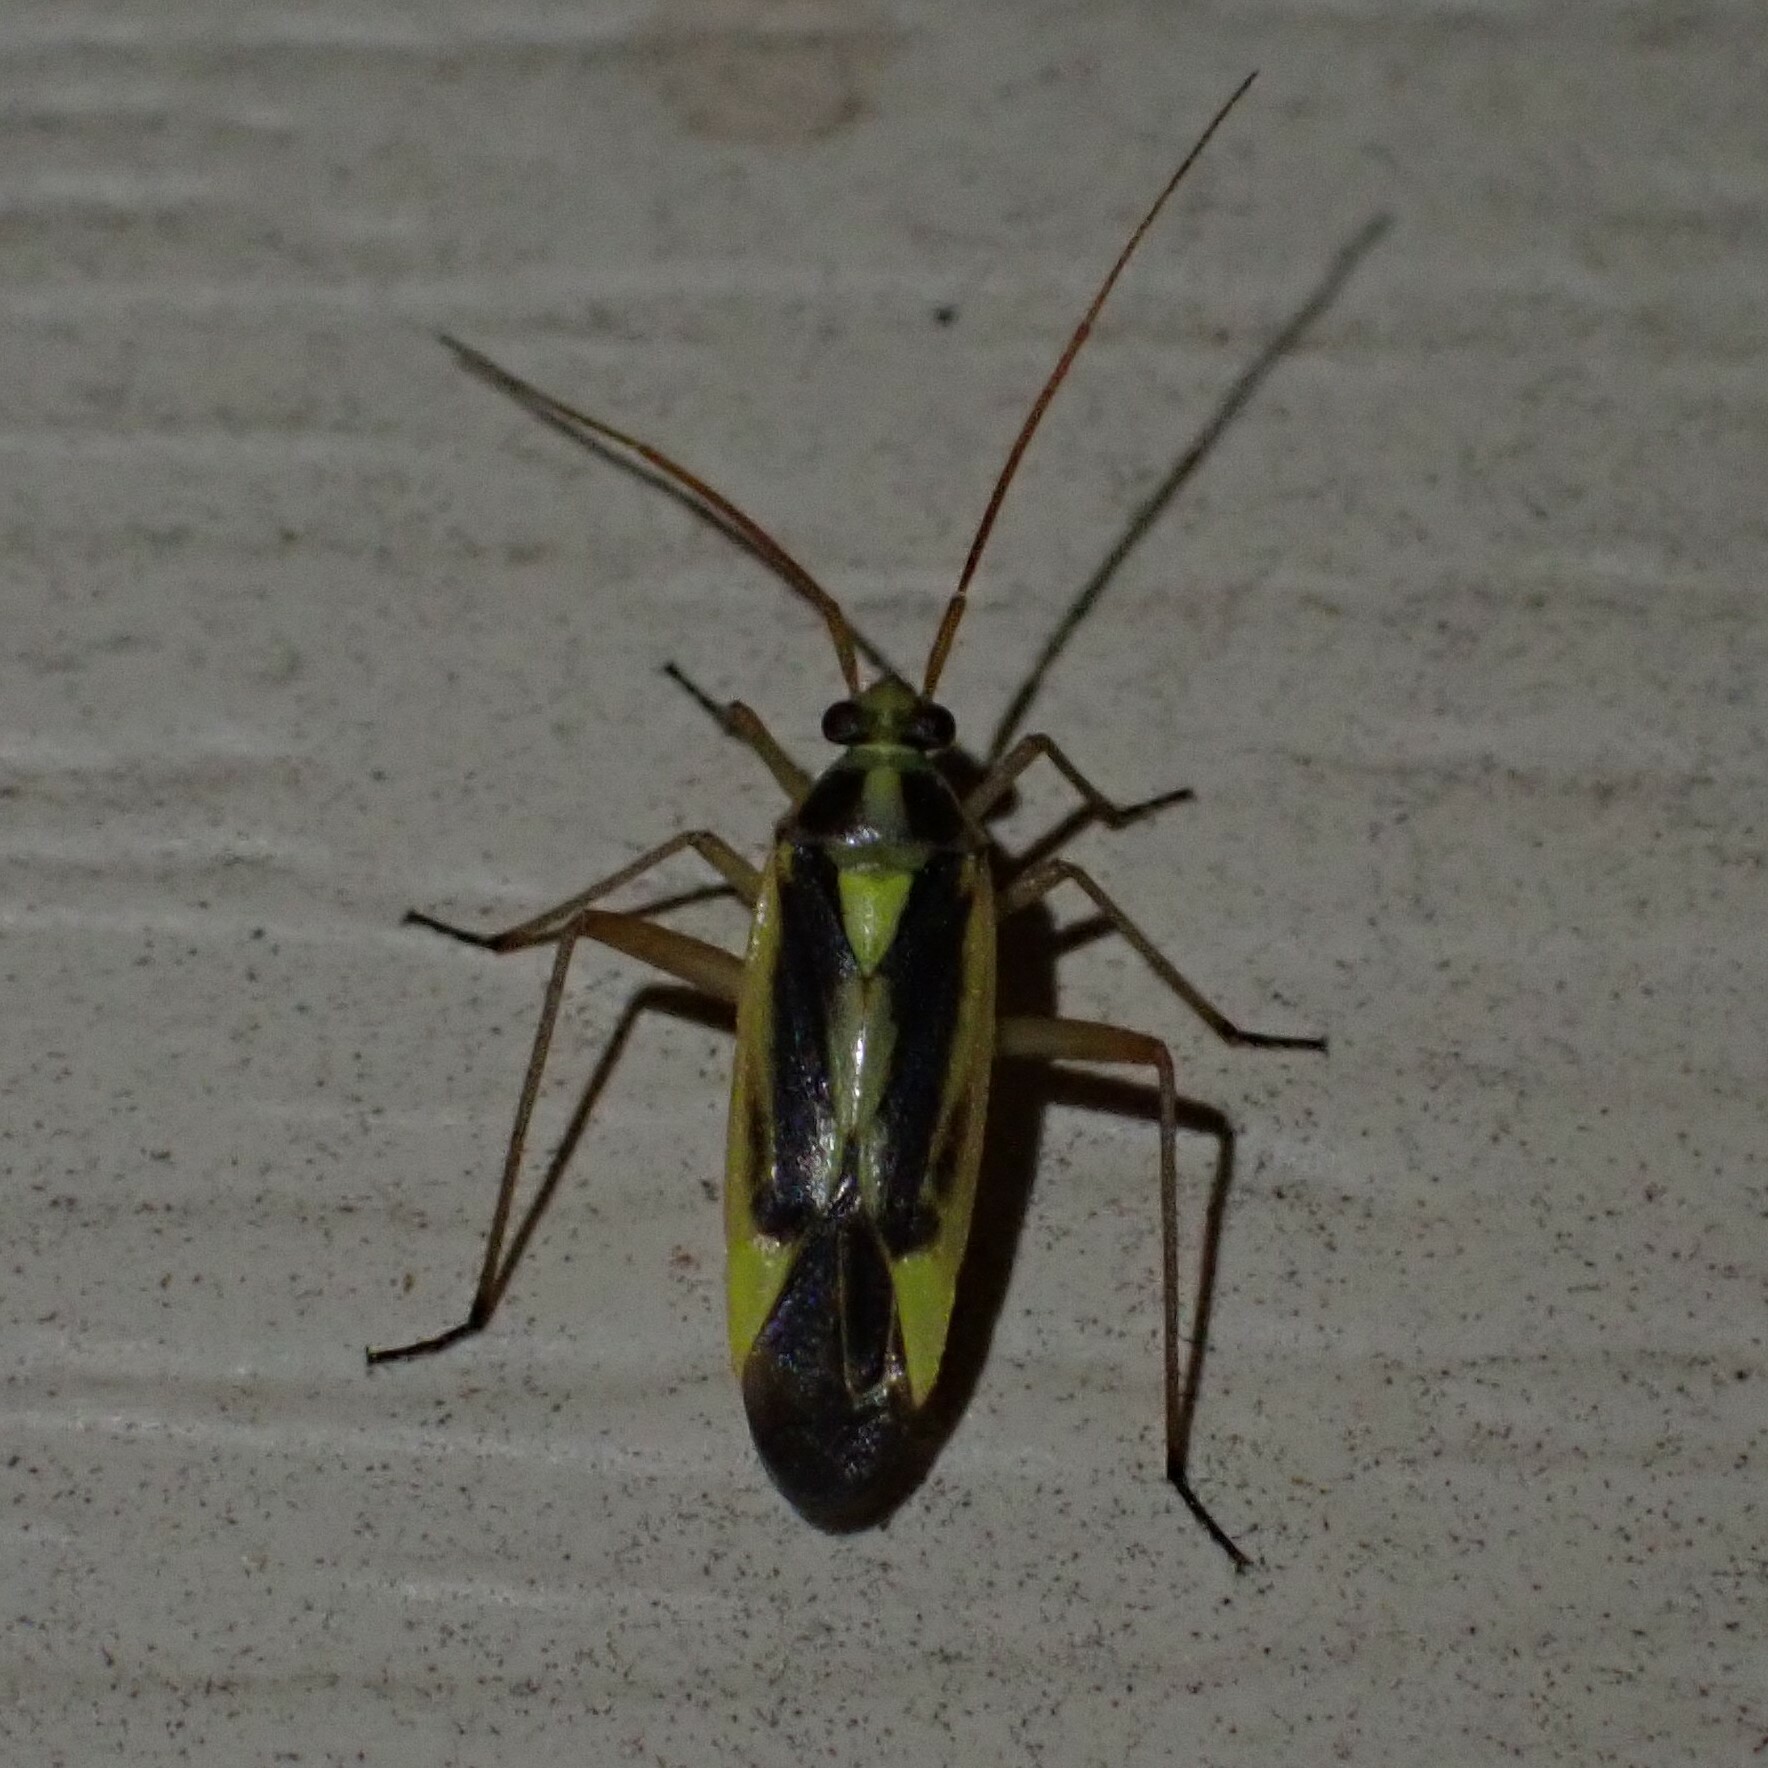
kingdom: Animalia
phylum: Arthropoda
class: Insecta
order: Hemiptera
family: Miridae
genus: Stenotus
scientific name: Stenotus binotatus
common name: Plant bug
